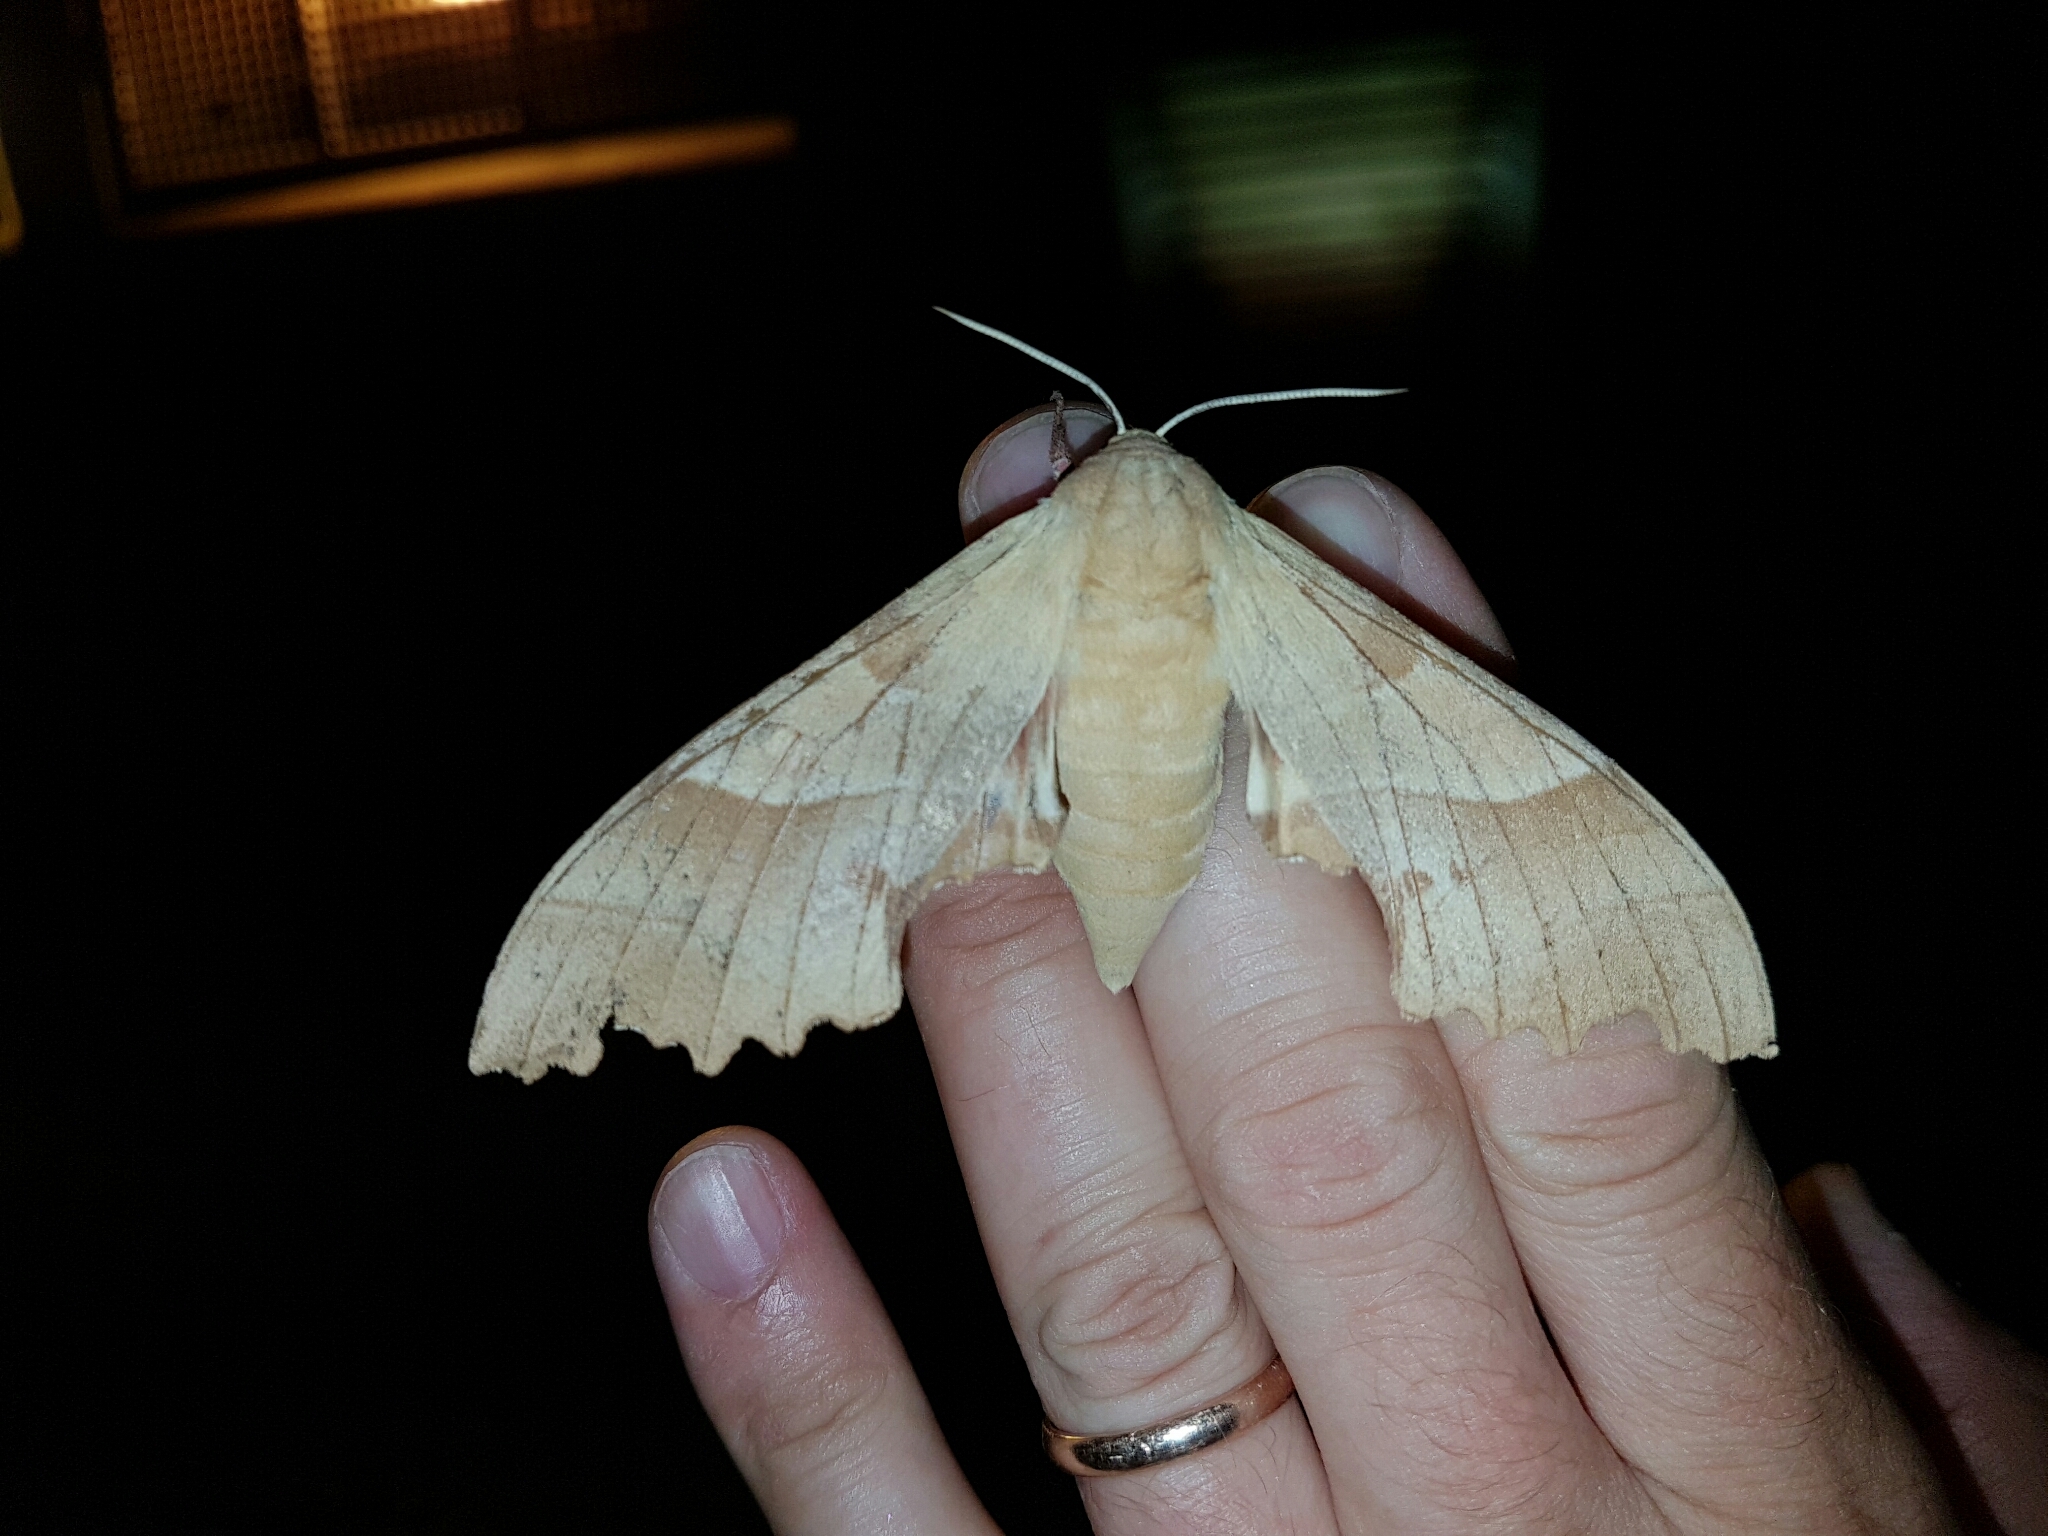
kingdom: Animalia
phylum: Arthropoda
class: Insecta
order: Lepidoptera
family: Sphingidae
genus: Marumba
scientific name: Marumba quercus
